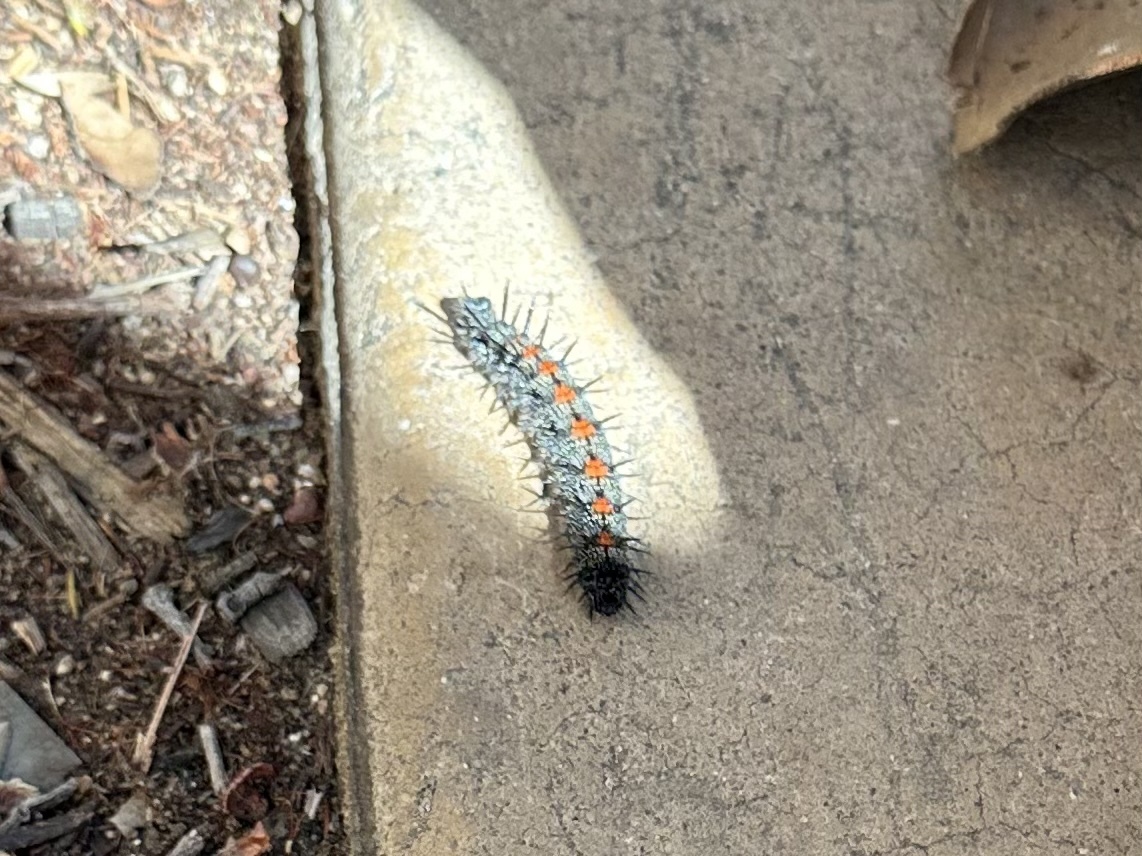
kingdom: Animalia
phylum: Arthropoda
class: Insecta
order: Lepidoptera
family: Nymphalidae
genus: Nymphalis
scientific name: Nymphalis antiopa
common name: Camberwell beauty
